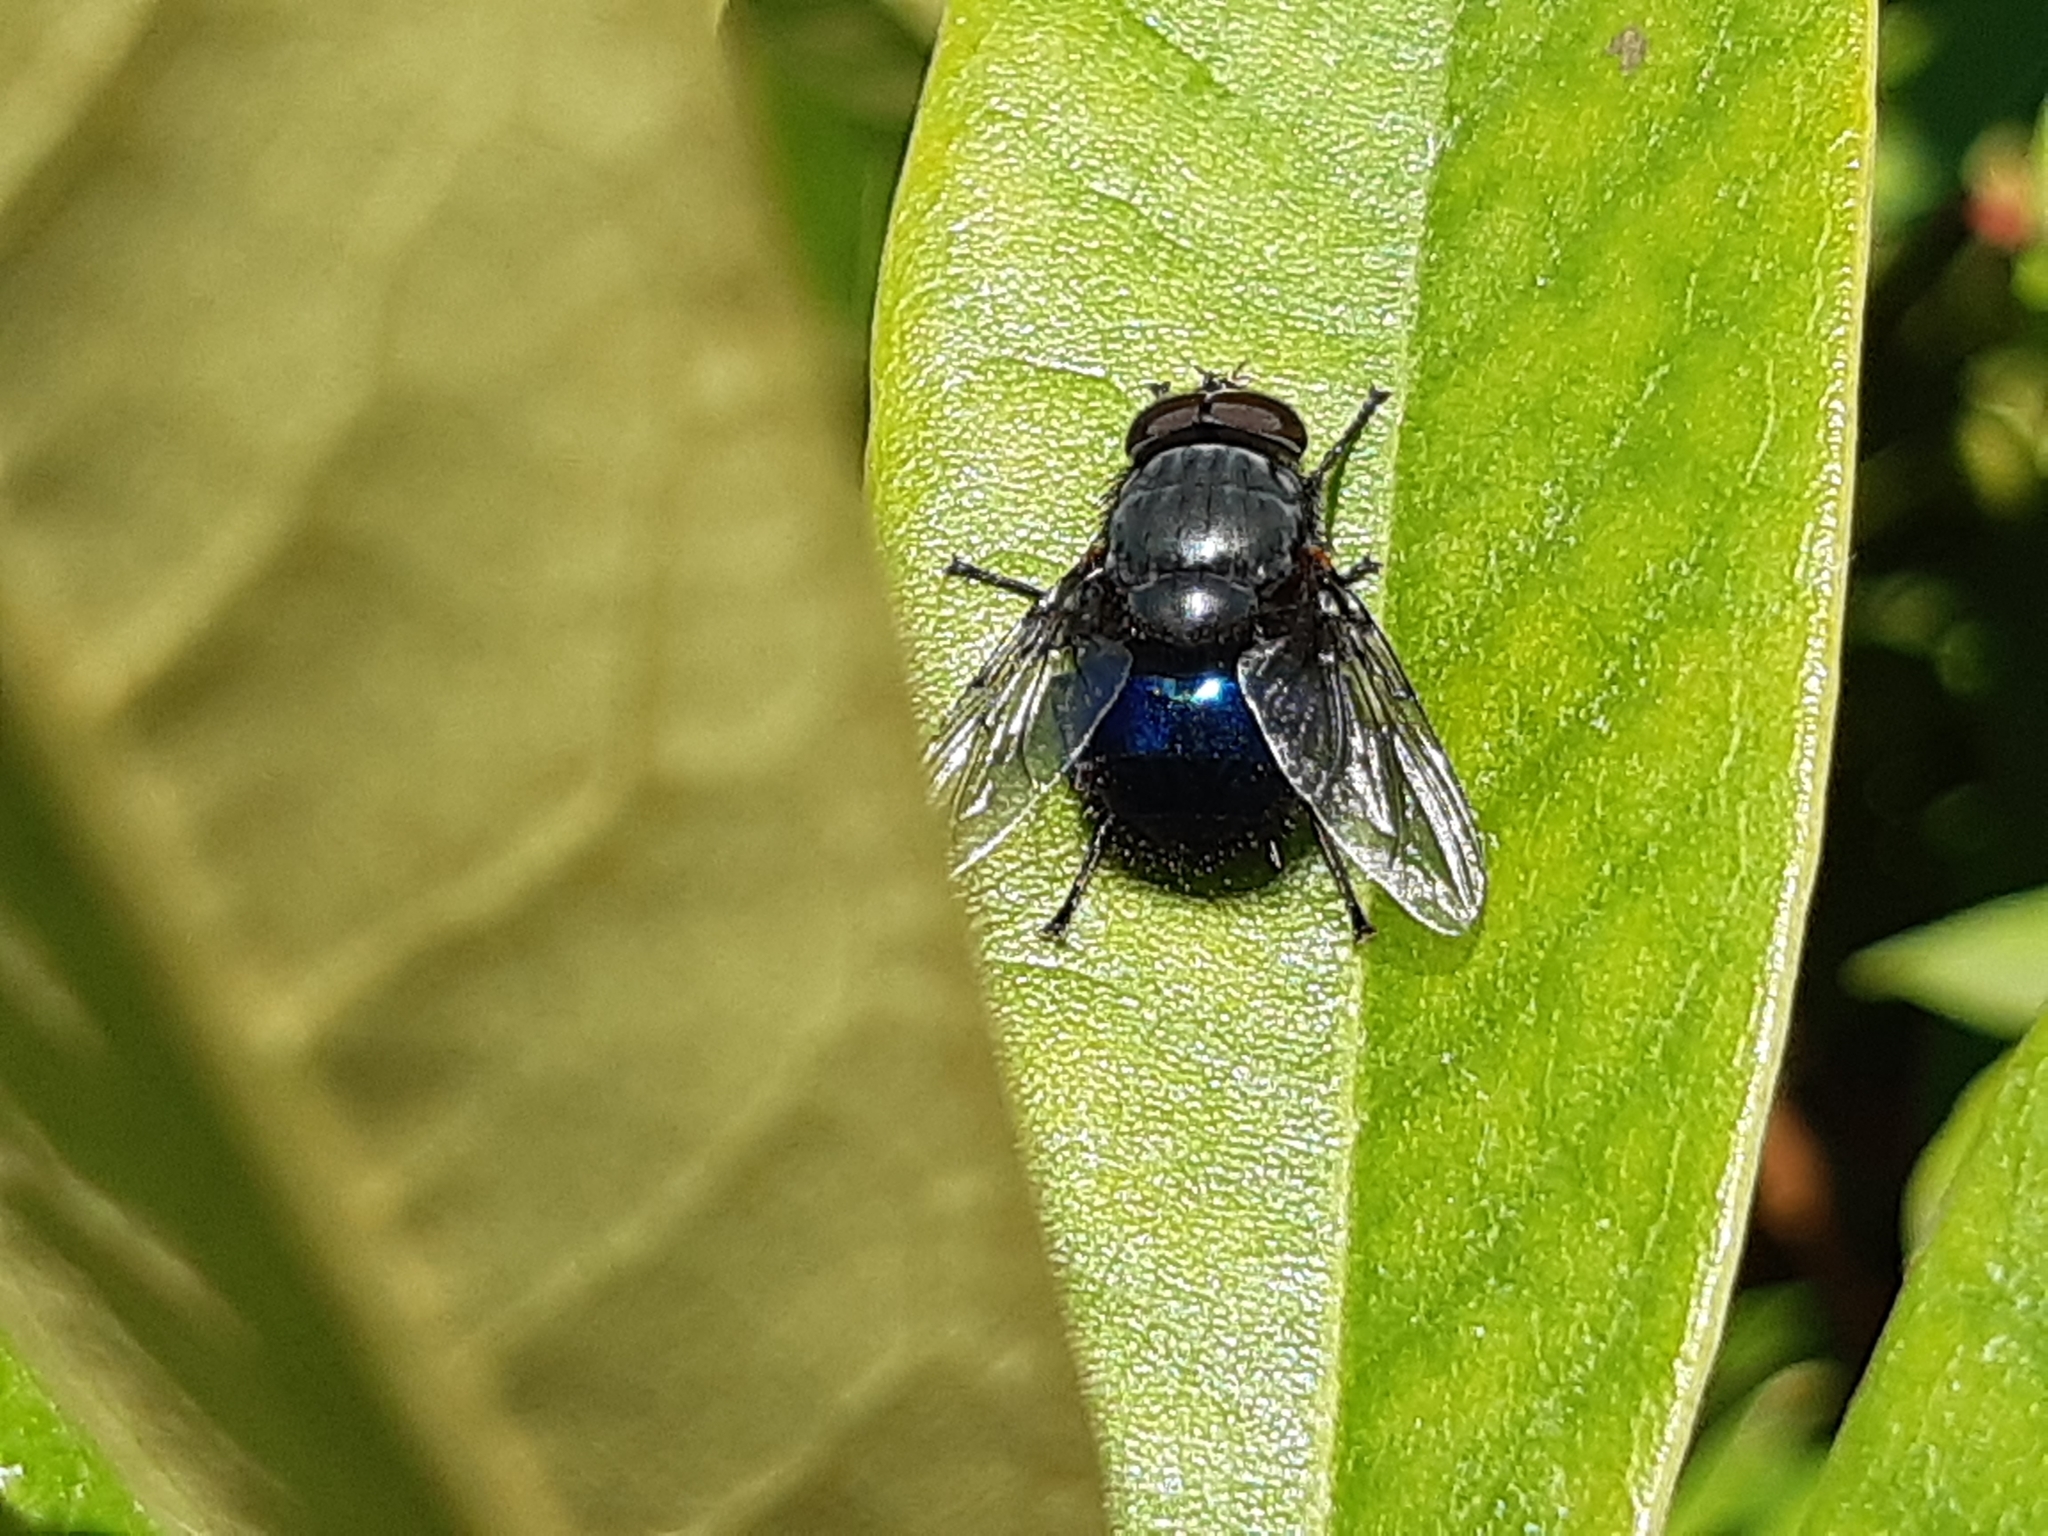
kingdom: Animalia
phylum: Arthropoda
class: Insecta
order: Diptera
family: Calliphoridae
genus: Calliphora
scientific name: Calliphora quadrimaculata
